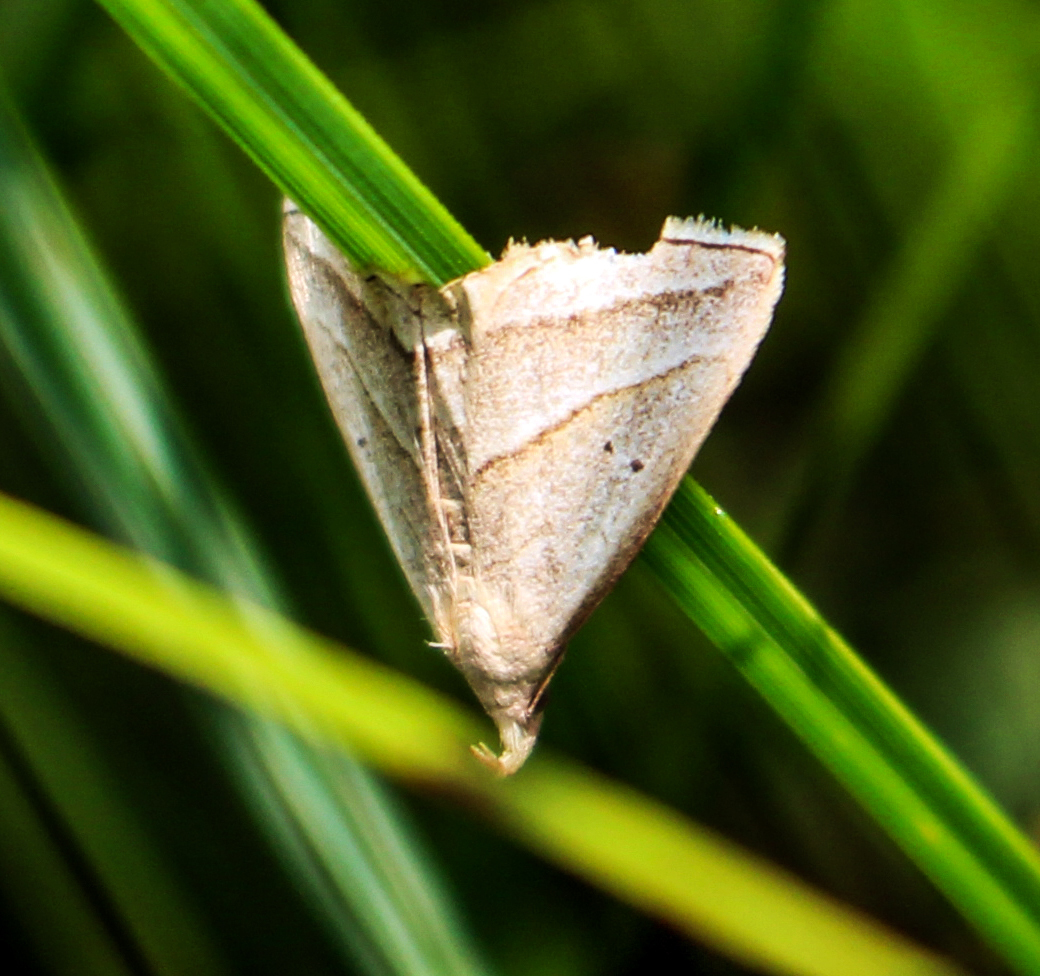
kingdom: Animalia
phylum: Arthropoda
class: Insecta
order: Lepidoptera
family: Erebidae
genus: Macrochilo
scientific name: Macrochilo absorptalis
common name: Slant-lined owlet
